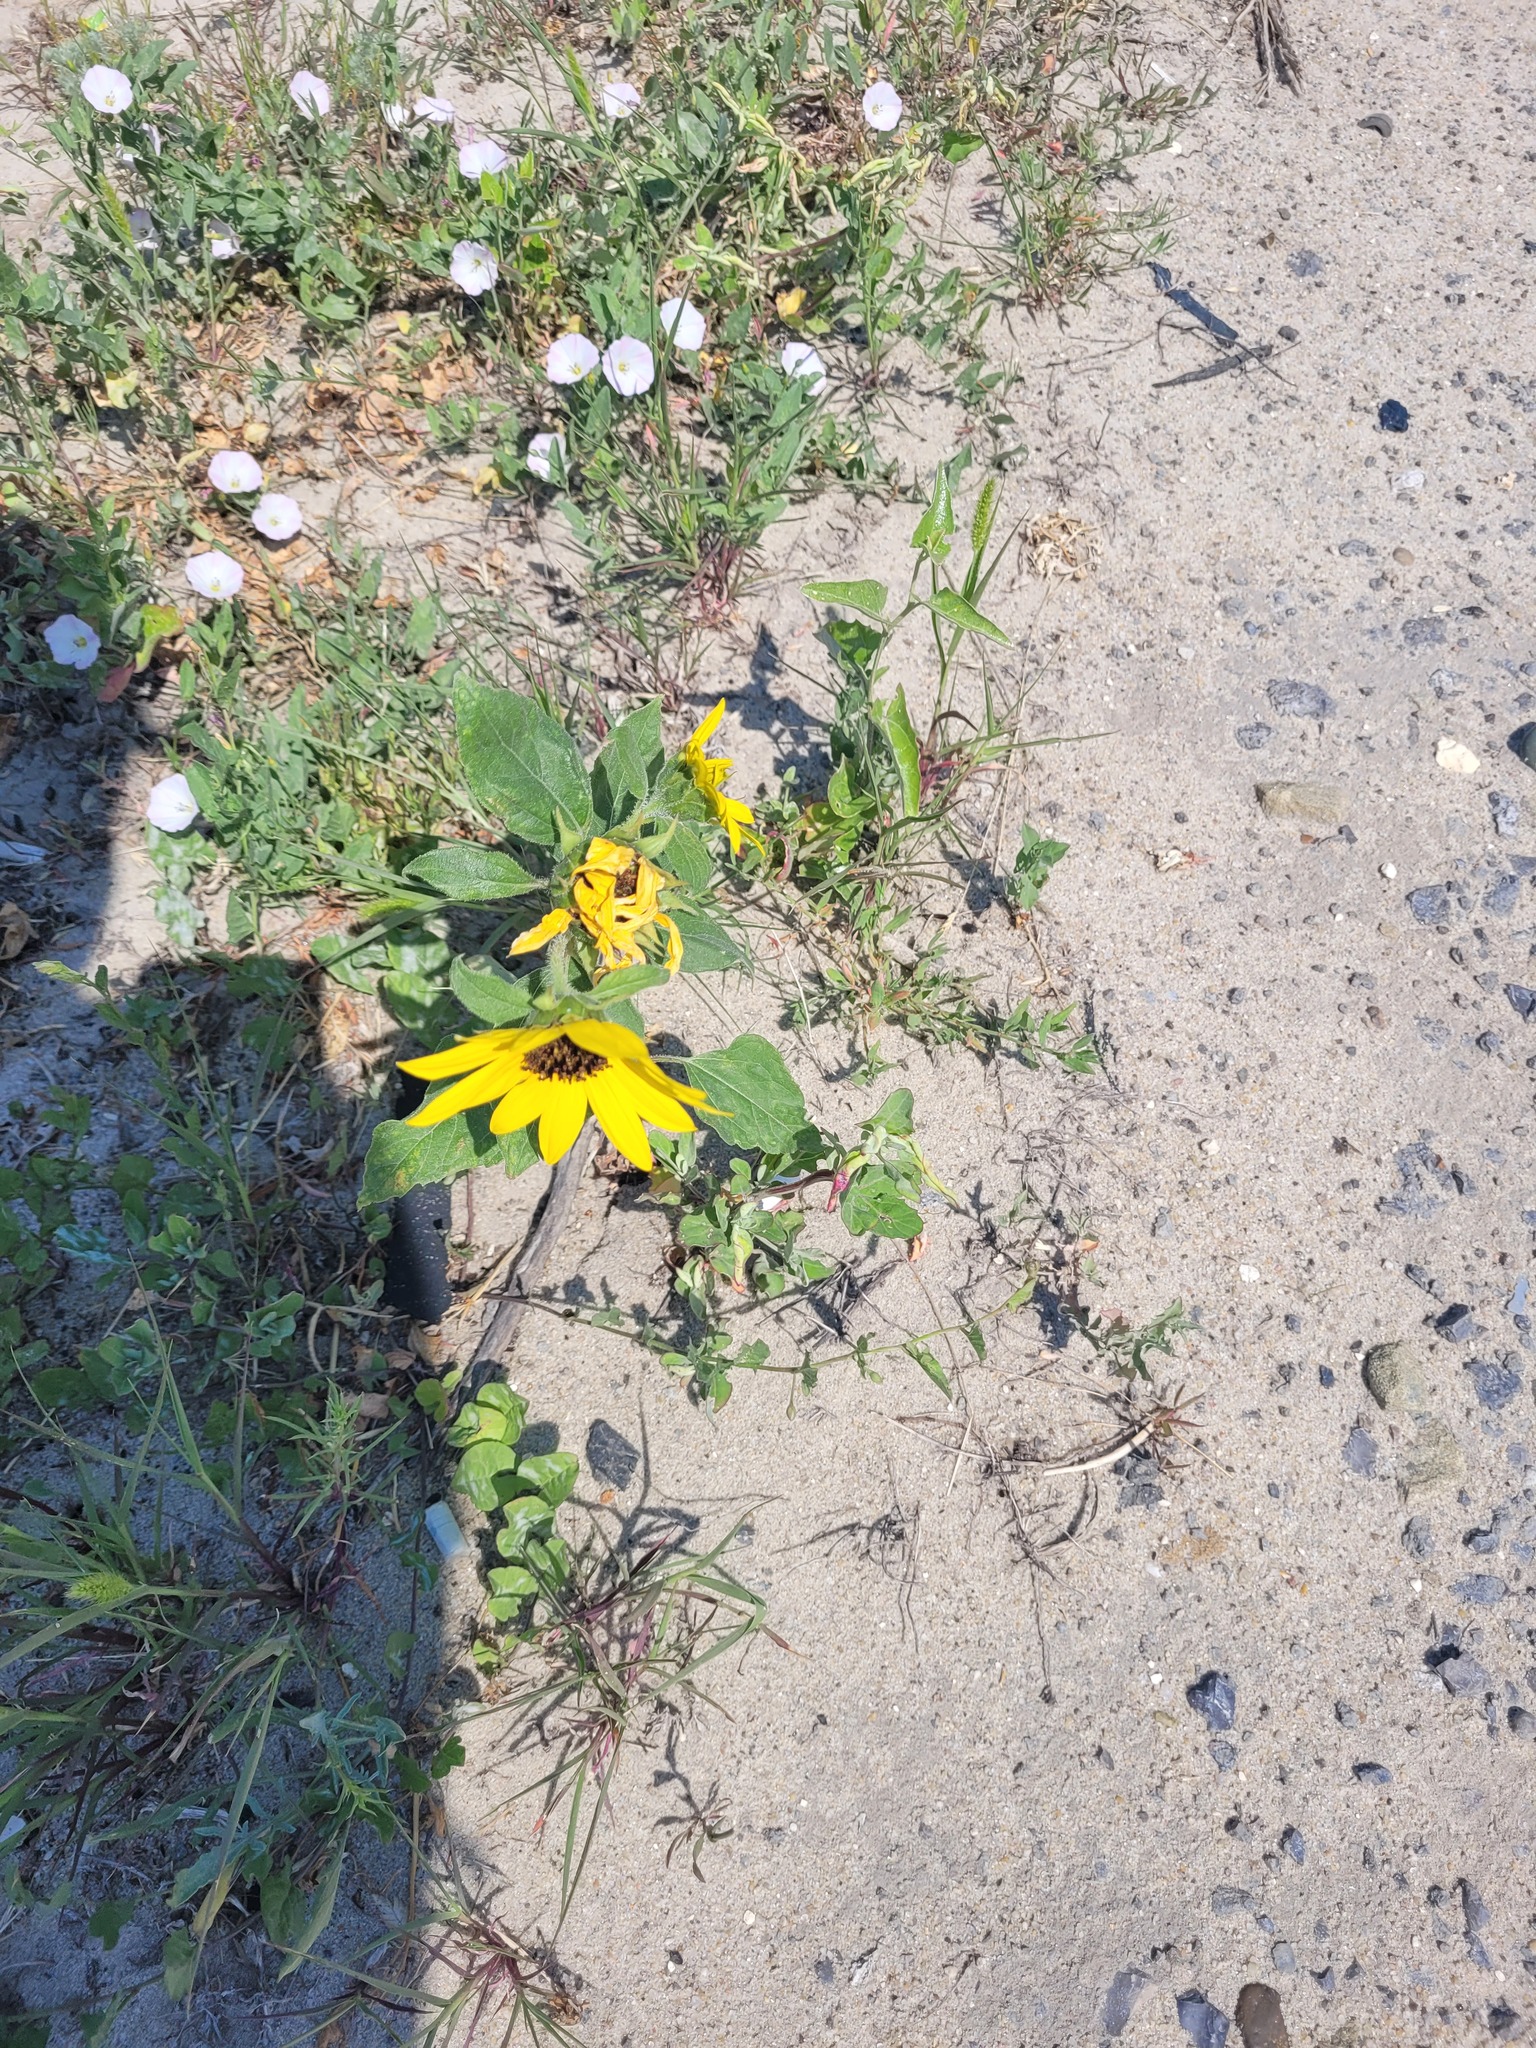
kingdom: Plantae
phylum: Tracheophyta
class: Magnoliopsida
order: Asterales
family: Asteraceae
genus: Helianthus
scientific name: Helianthus annuus
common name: Sunflower
